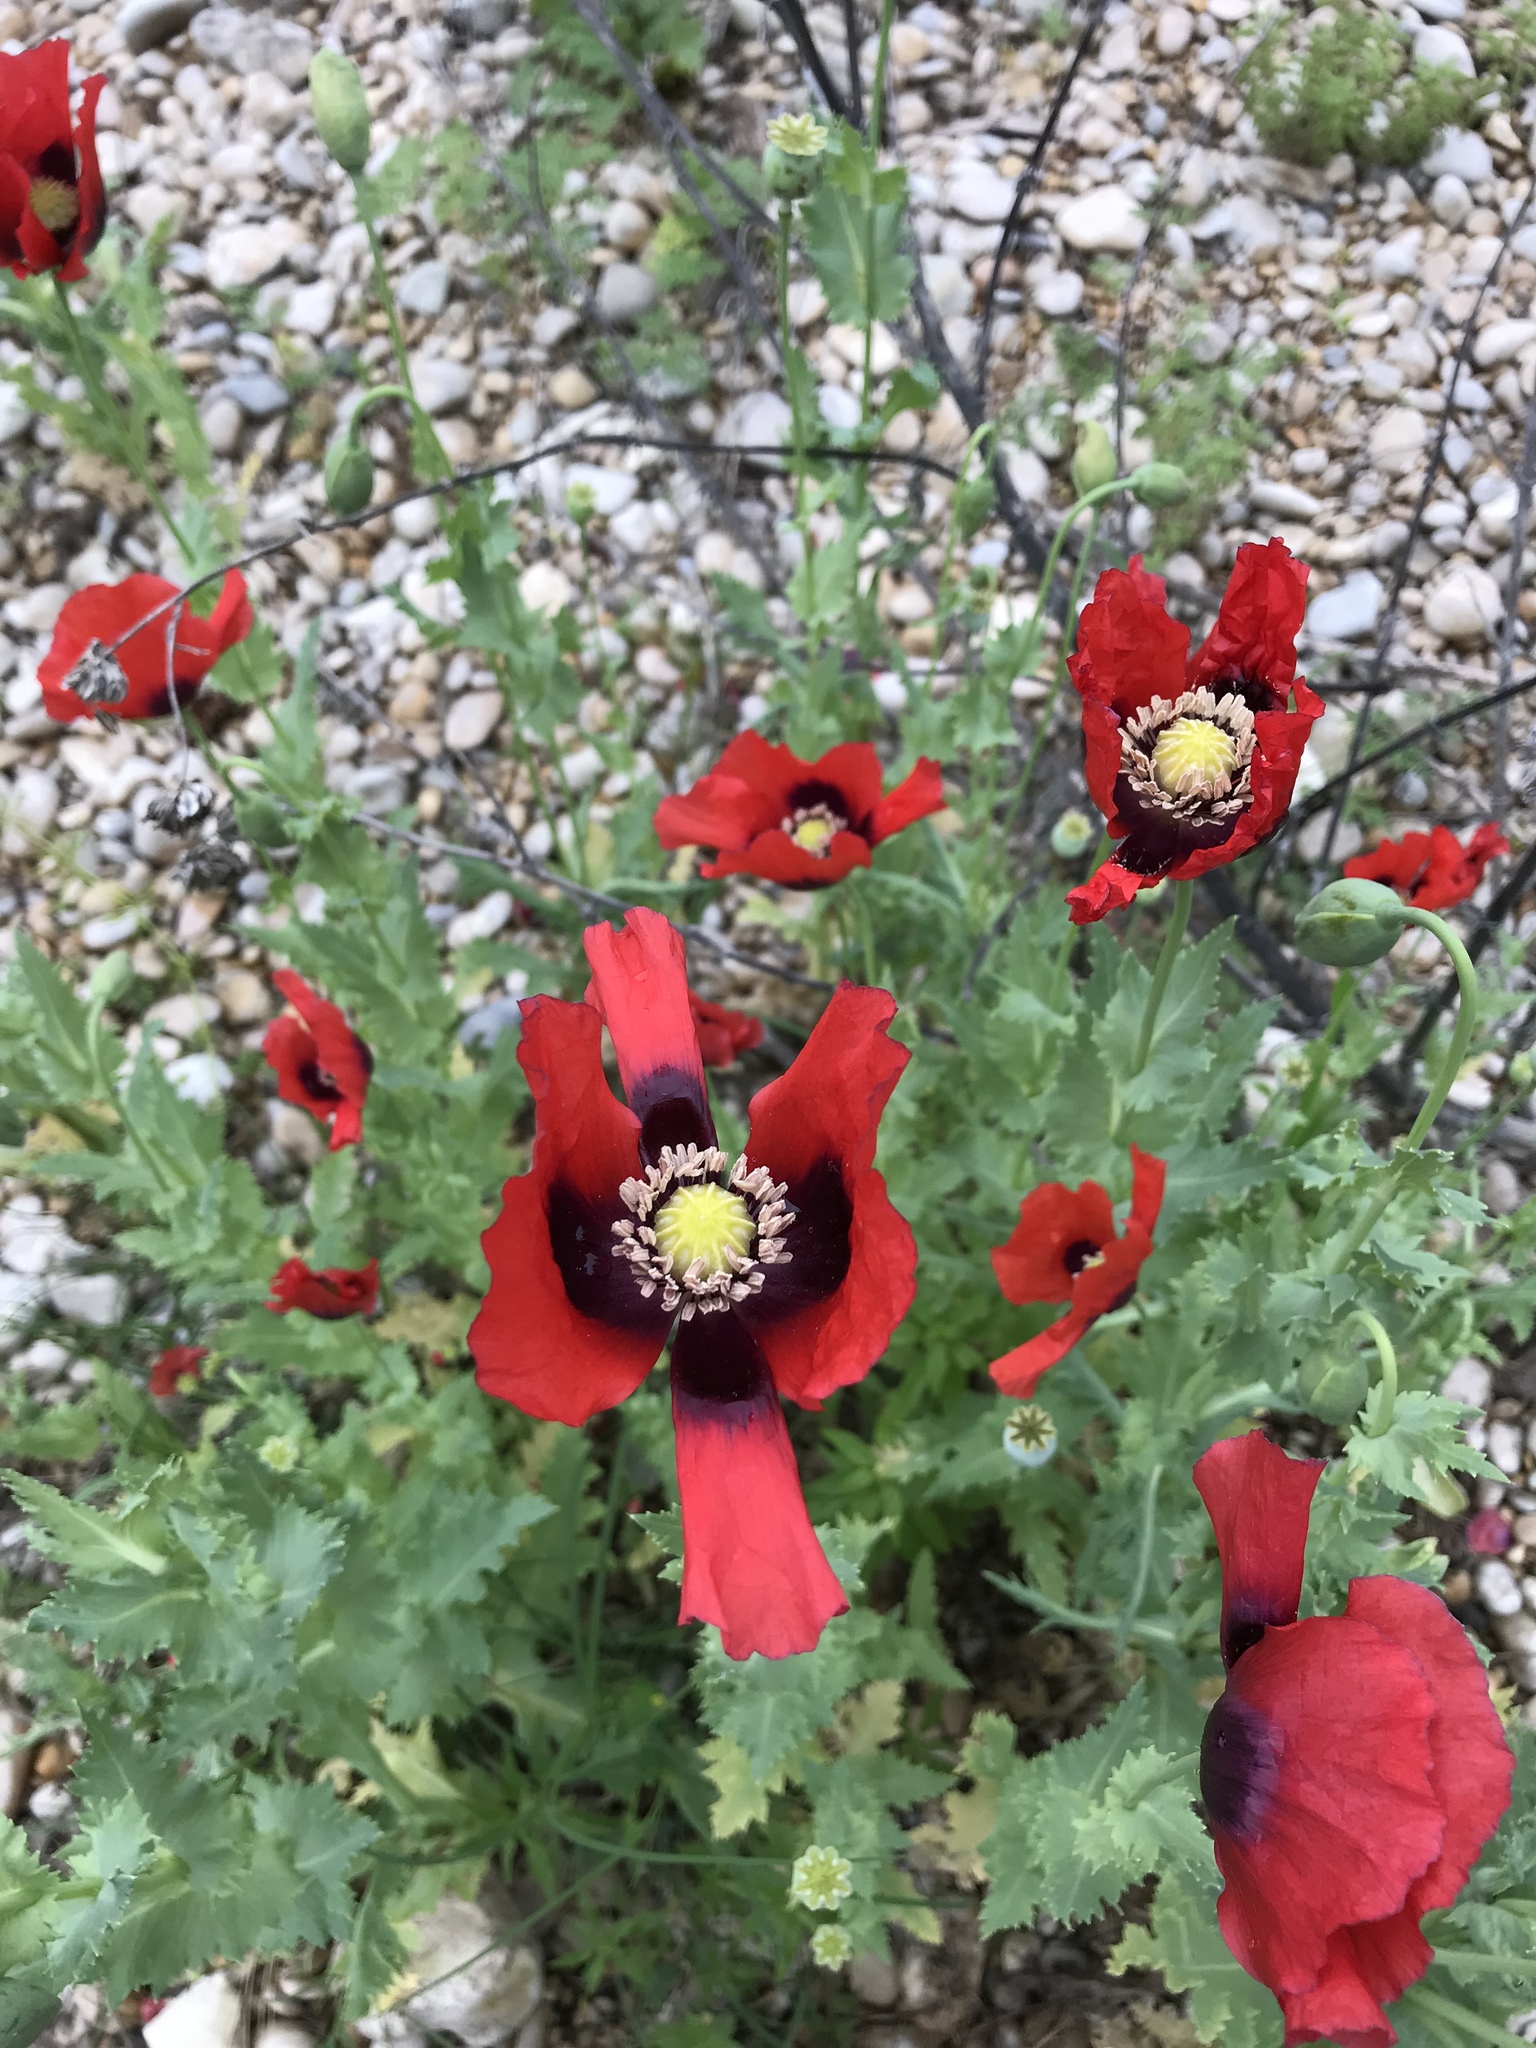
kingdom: Plantae
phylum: Tracheophyta
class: Magnoliopsida
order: Ranunculales
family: Papaveraceae
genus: Papaver
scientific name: Papaver somniferum
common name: Opium poppy
